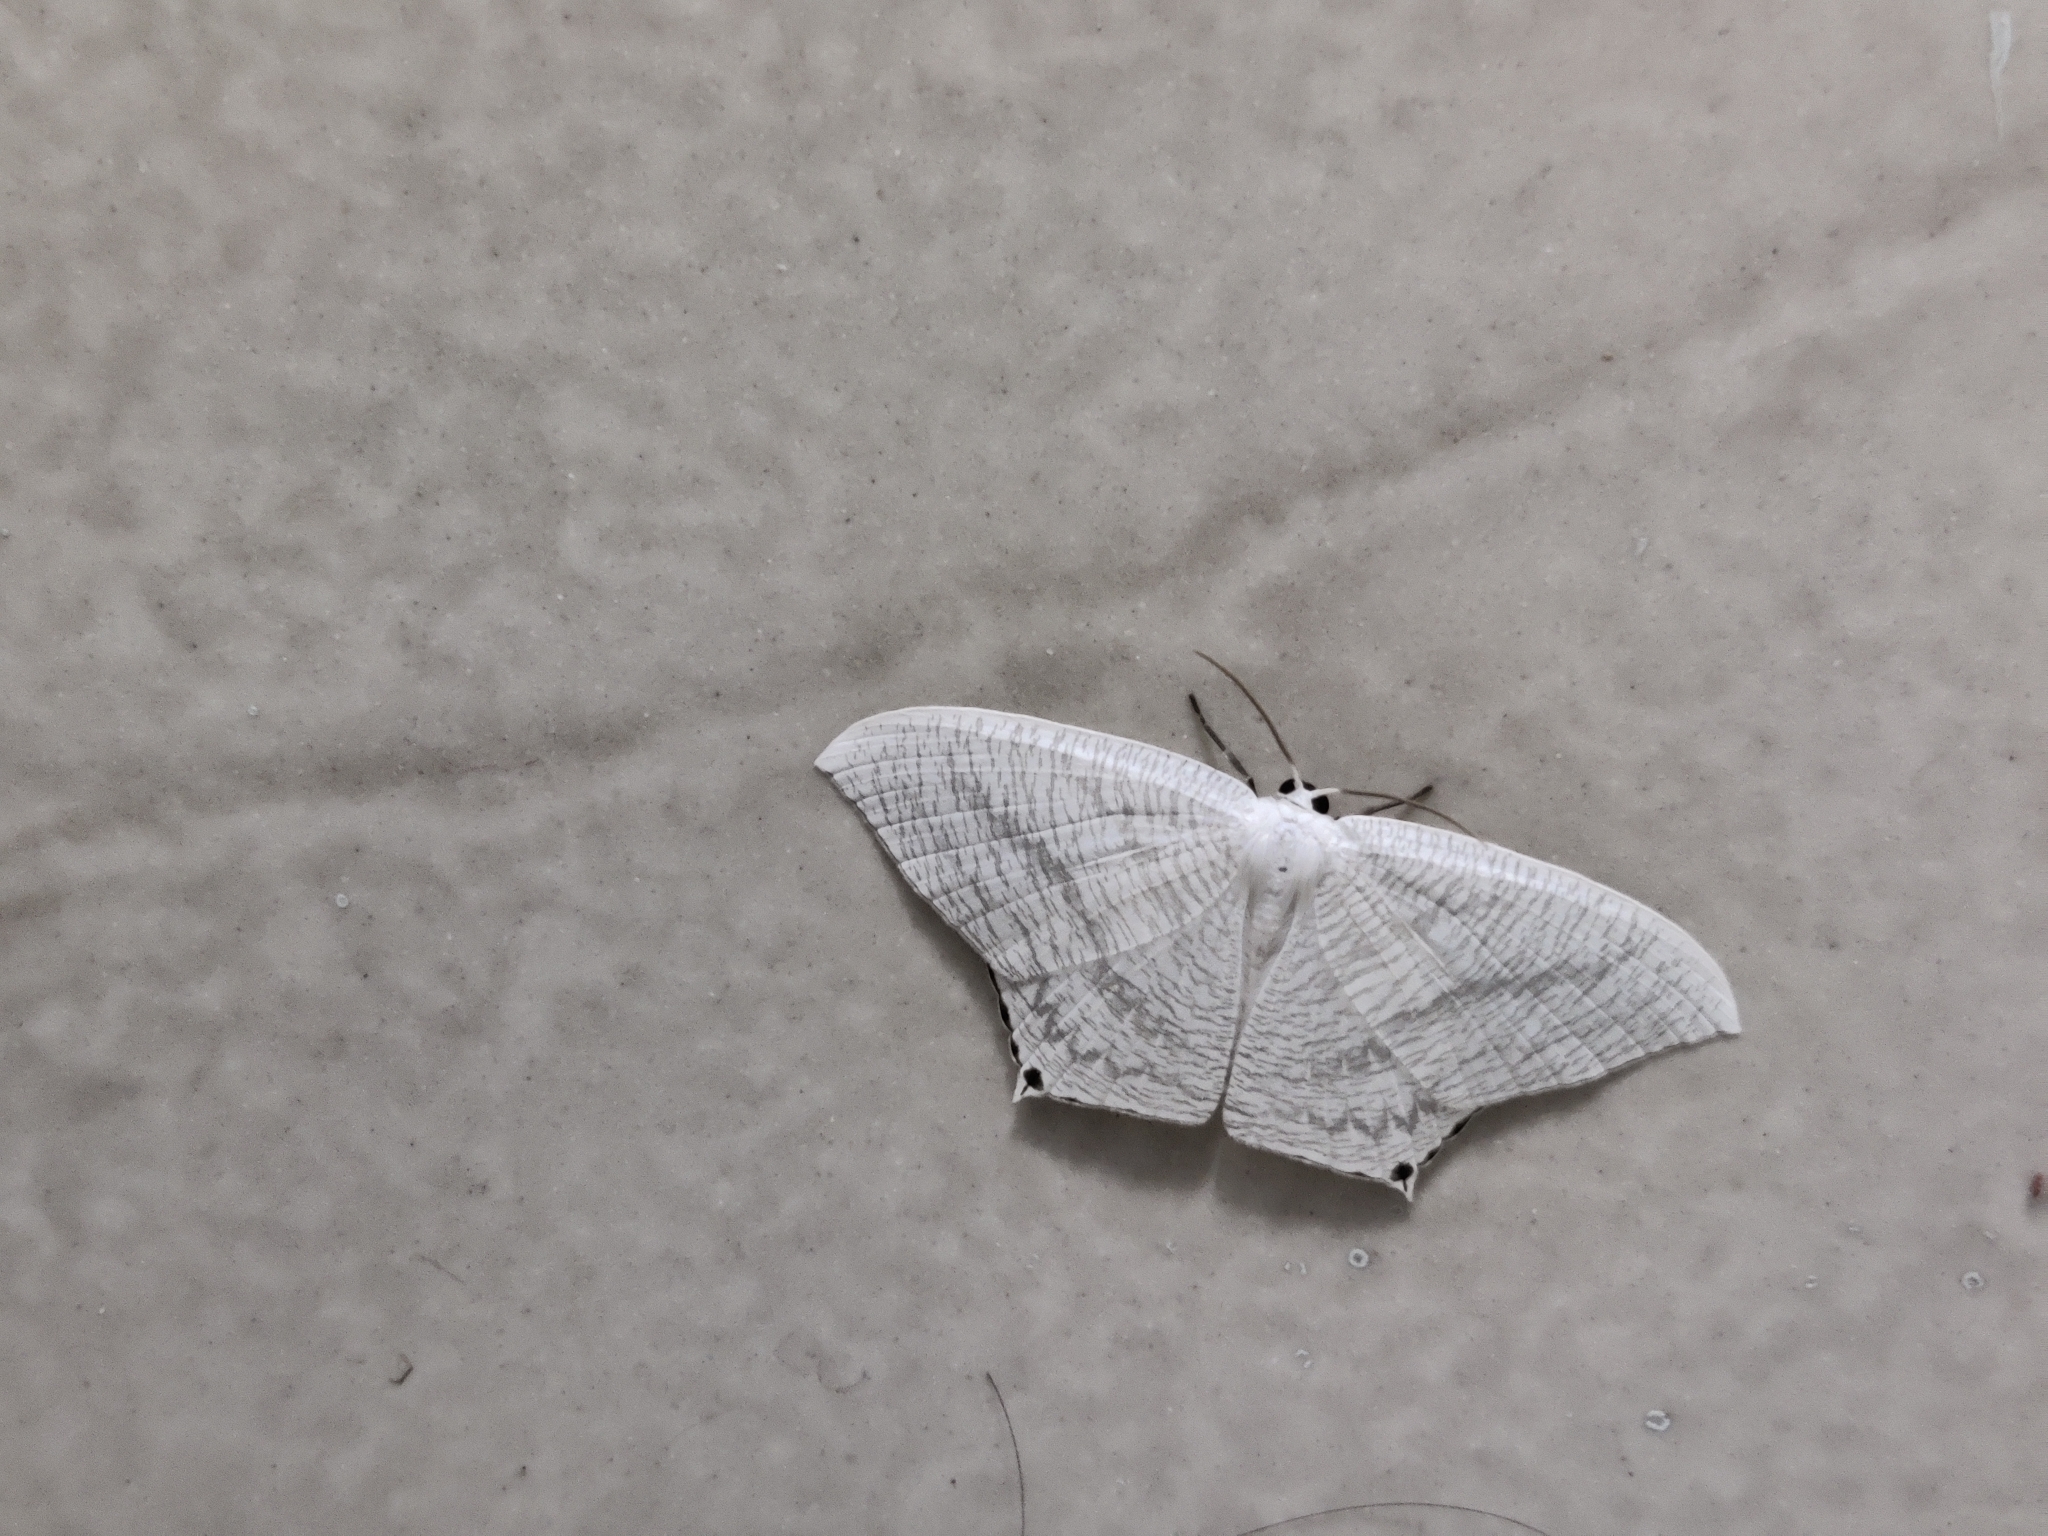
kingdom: Animalia
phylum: Arthropoda
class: Insecta
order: Lepidoptera
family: Uraniidae
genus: Micronia
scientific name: Micronia aculeata
